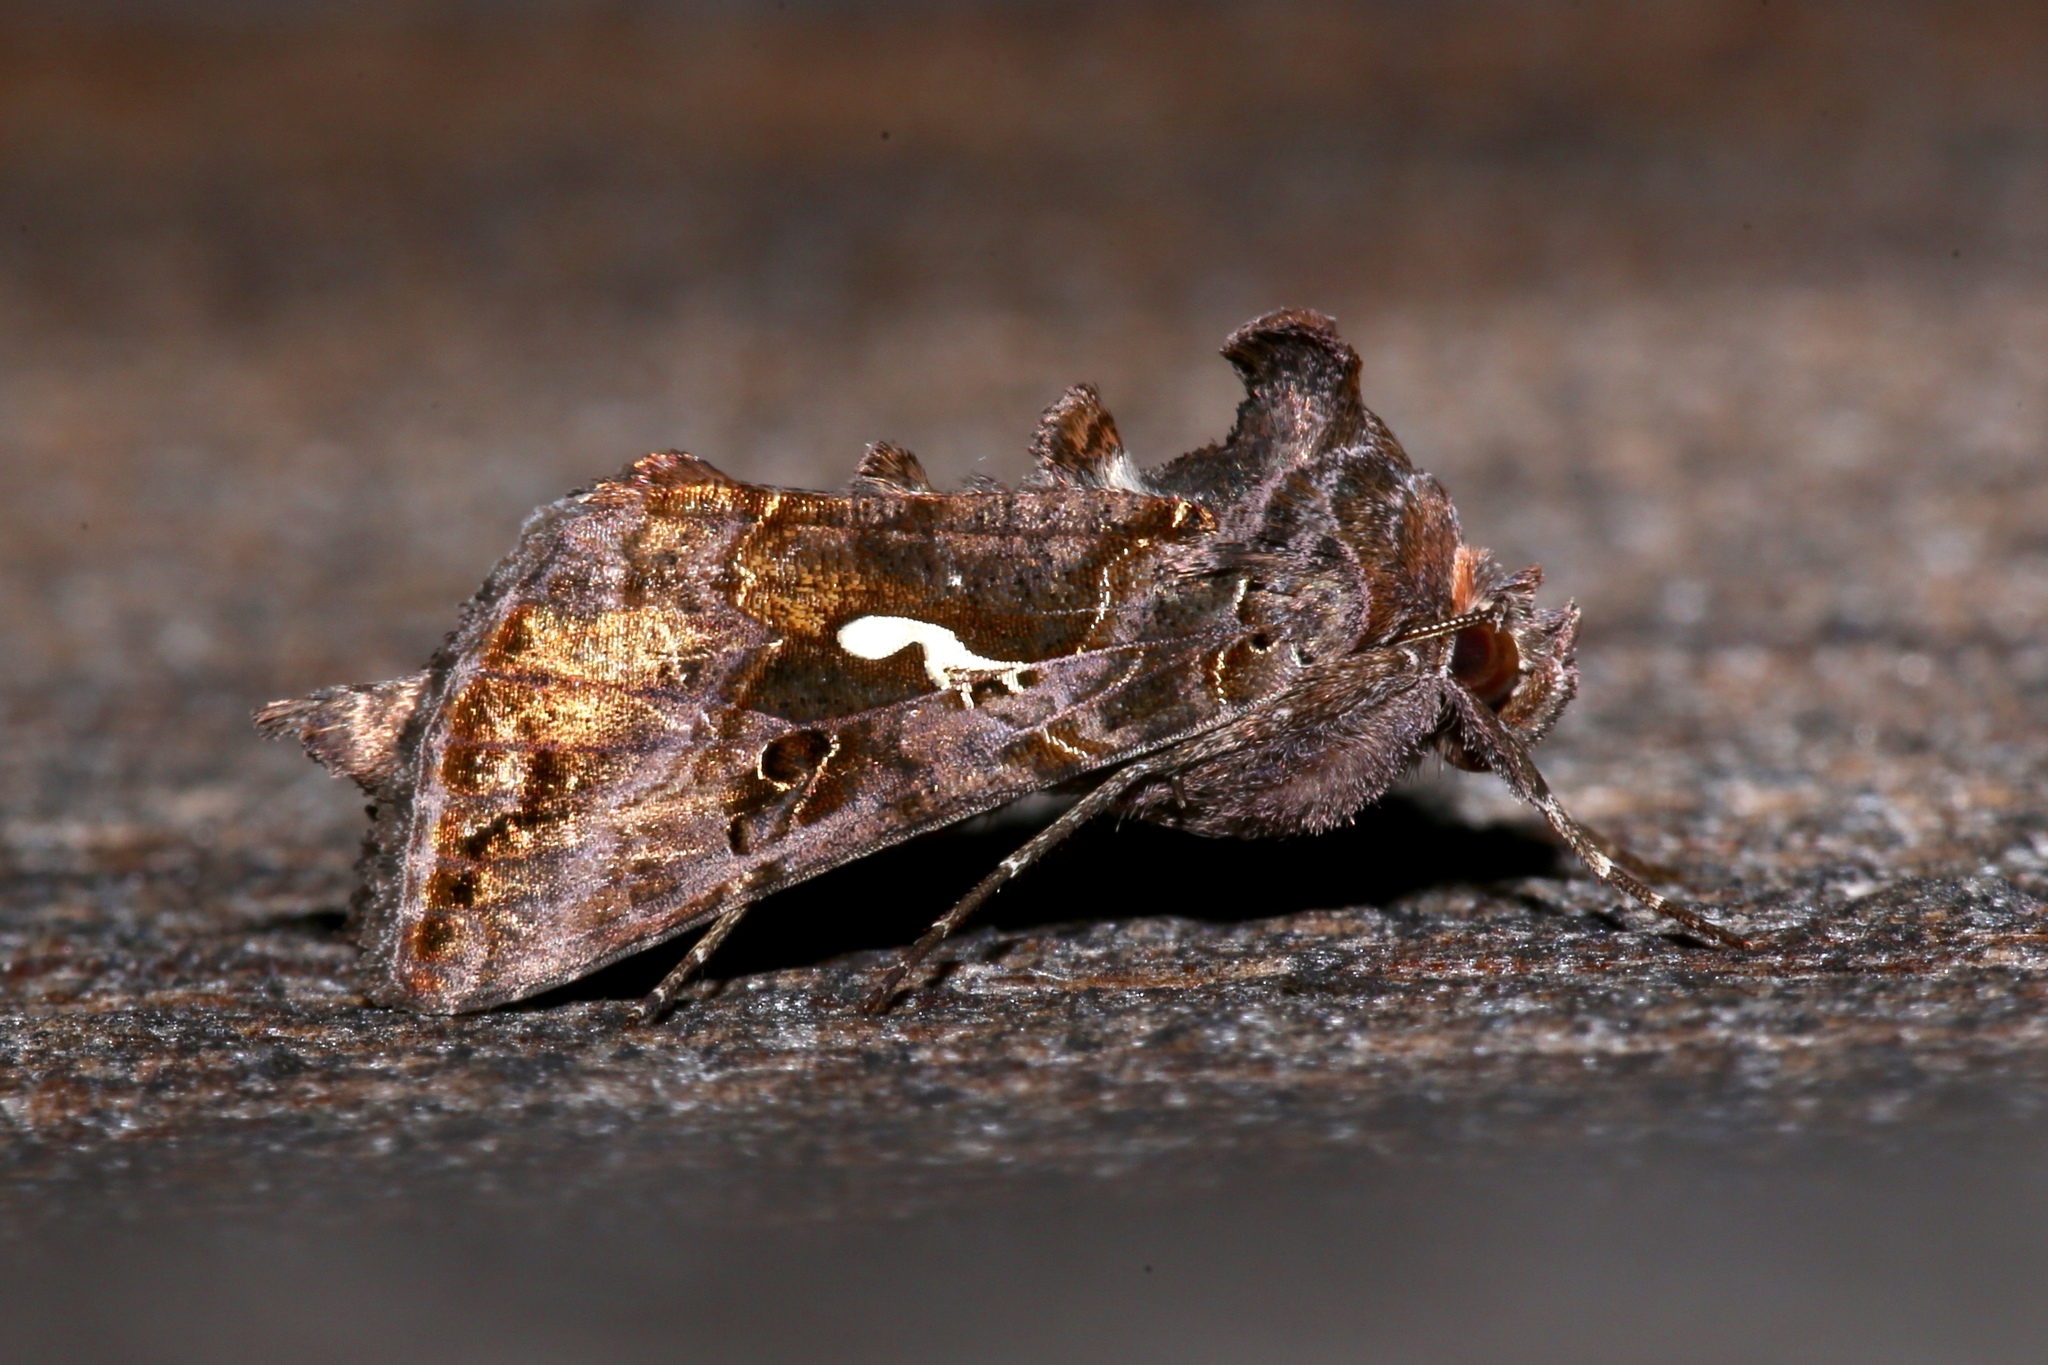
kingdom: Animalia
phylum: Arthropoda
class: Insecta
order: Lepidoptera
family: Noctuidae
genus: Autographa
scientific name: Autographa precationis
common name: Common looper moth
